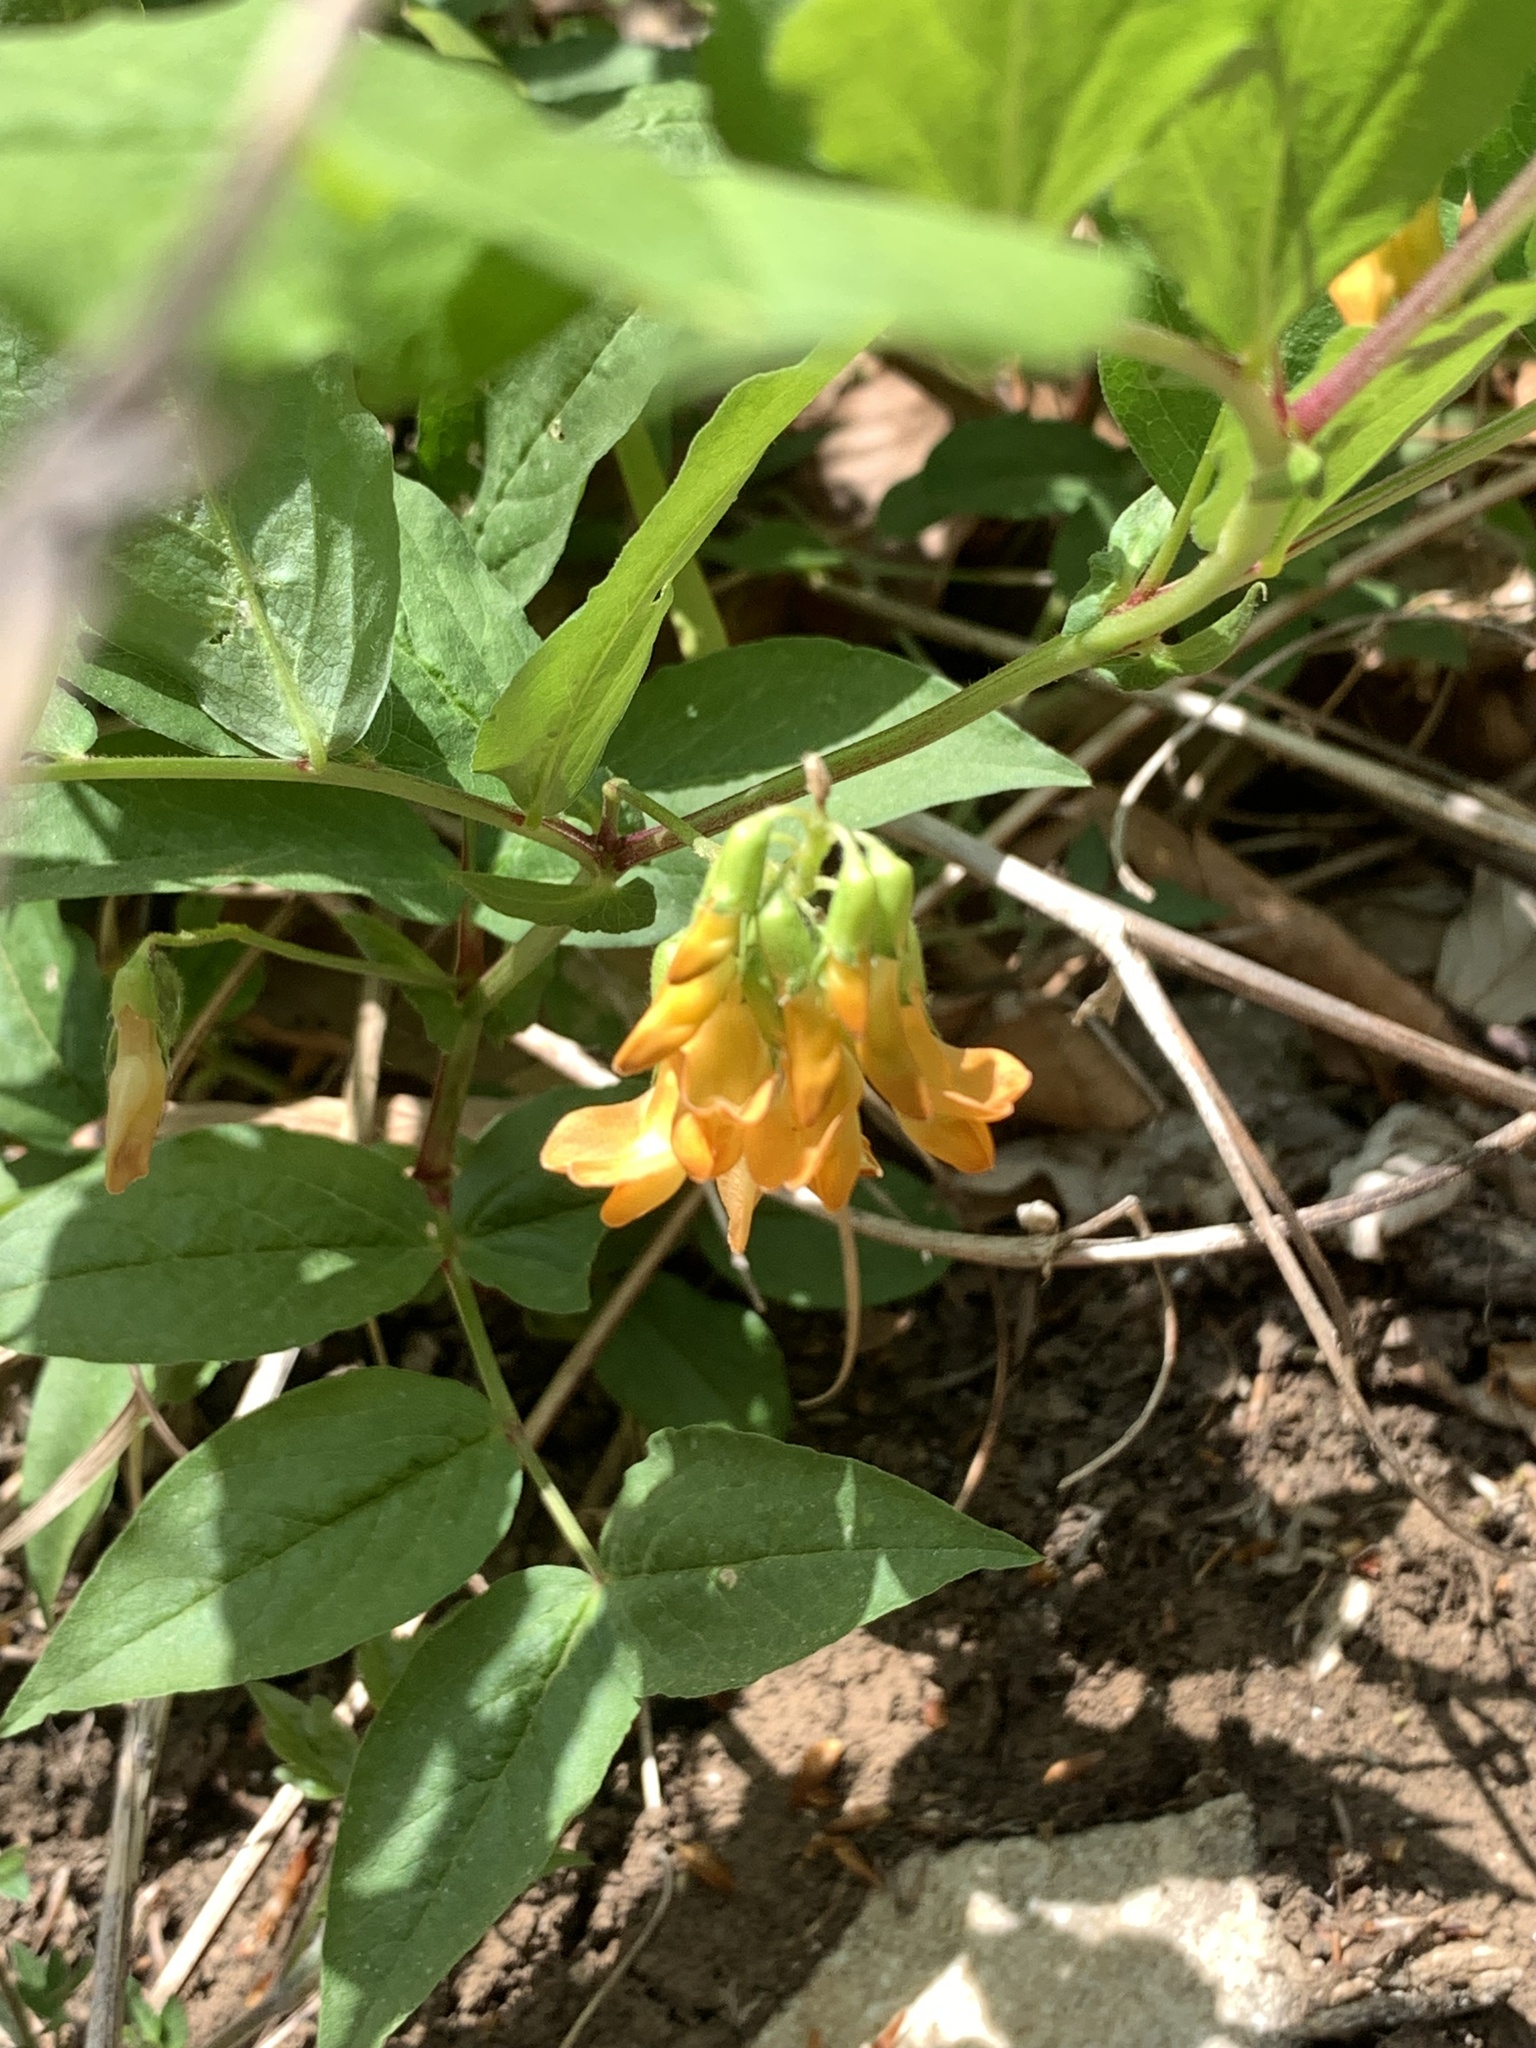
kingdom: Plantae
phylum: Tracheophyta
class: Magnoliopsida
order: Fabales
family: Fabaceae
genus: Lathyrus
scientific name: Lathyrus aureus
